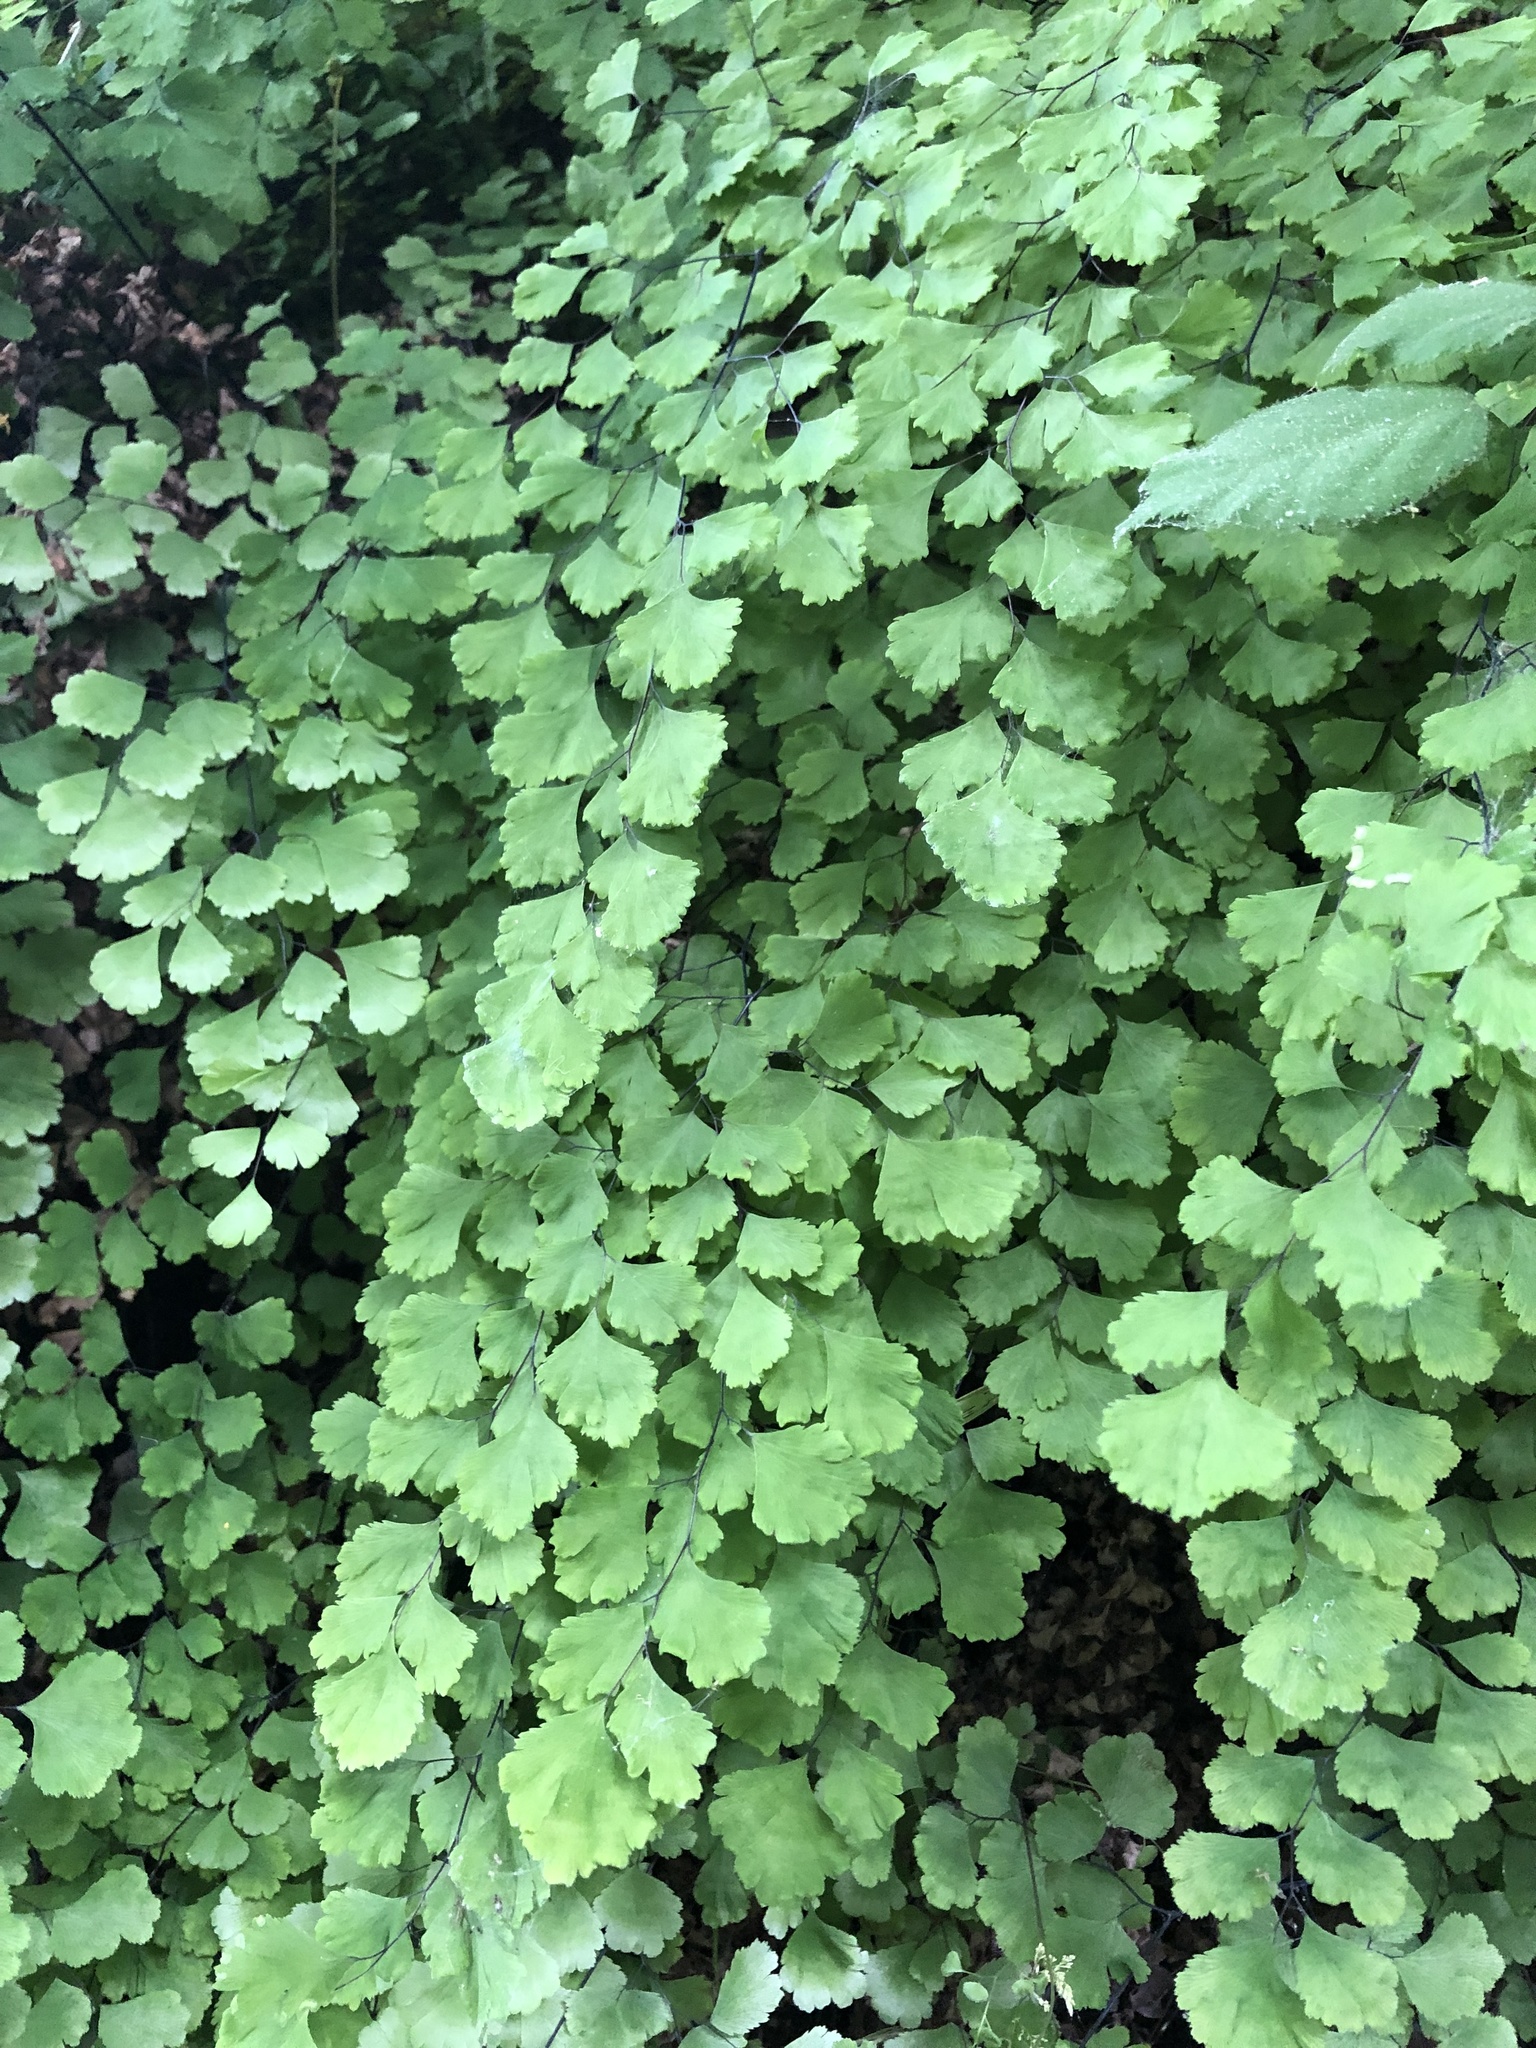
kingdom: Plantae
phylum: Tracheophyta
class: Polypodiopsida
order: Polypodiales
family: Pteridaceae
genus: Adiantum
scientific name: Adiantum capillus-veneris
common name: Maidenhair fern
